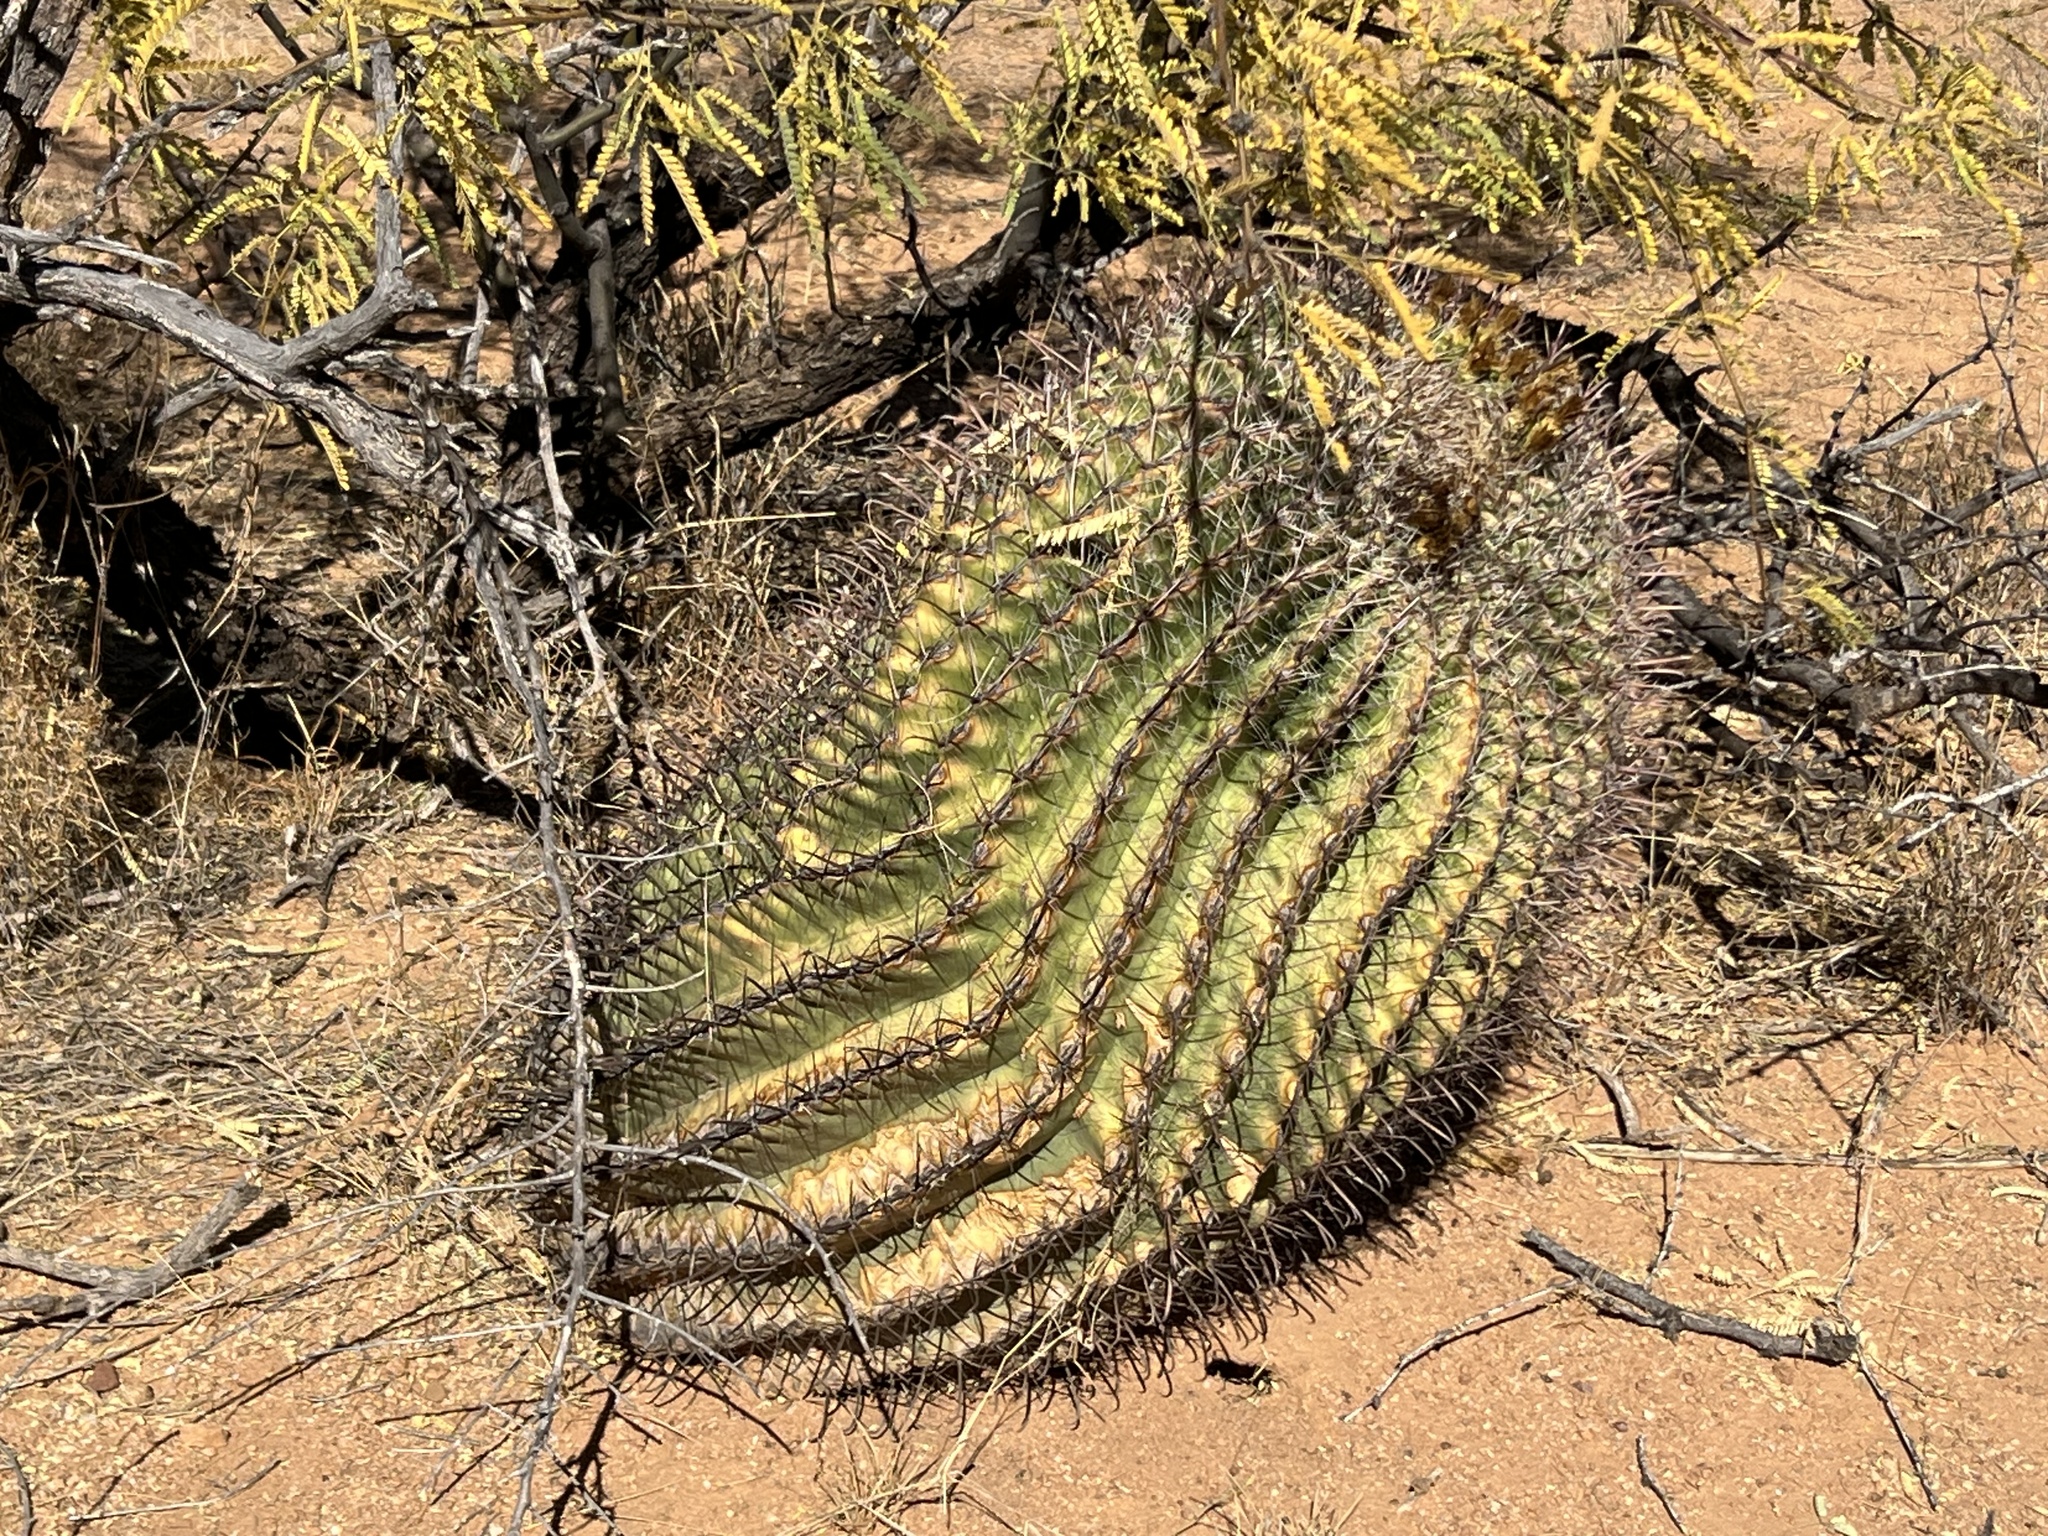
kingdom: Plantae
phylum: Tracheophyta
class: Magnoliopsida
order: Caryophyllales
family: Cactaceae
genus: Ferocactus
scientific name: Ferocactus wislizeni
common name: Candy barrel cactus
